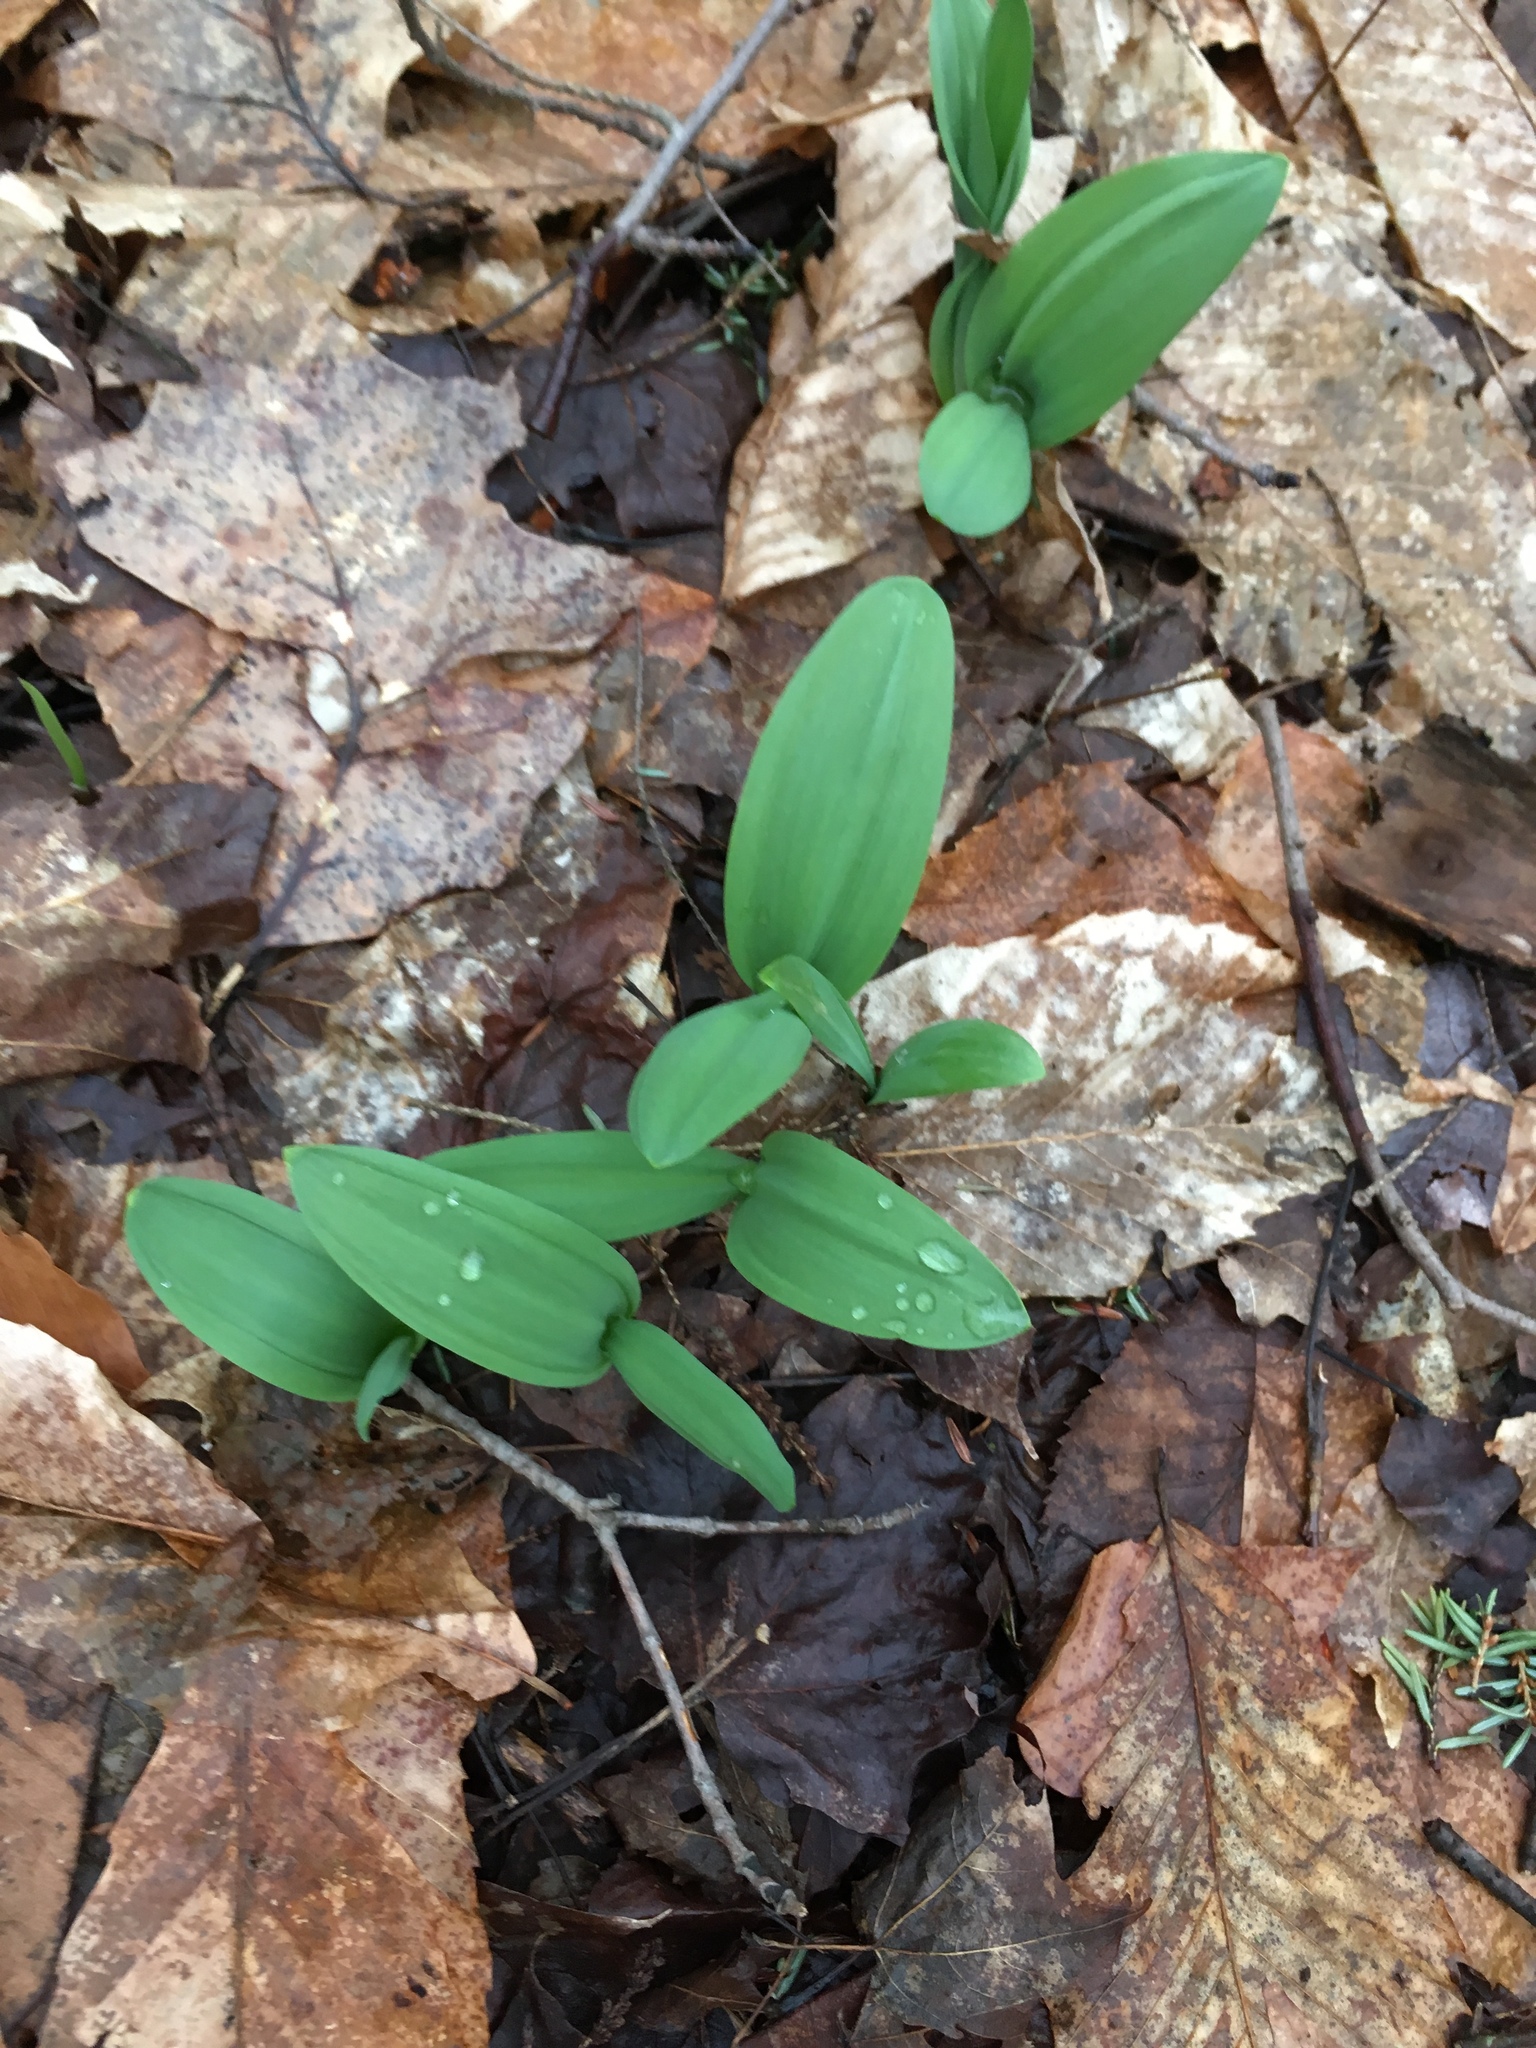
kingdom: Plantae
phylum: Tracheophyta
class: Liliopsida
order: Asparagales
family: Amaryllidaceae
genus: Allium
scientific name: Allium tricoccum
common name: Ramp
